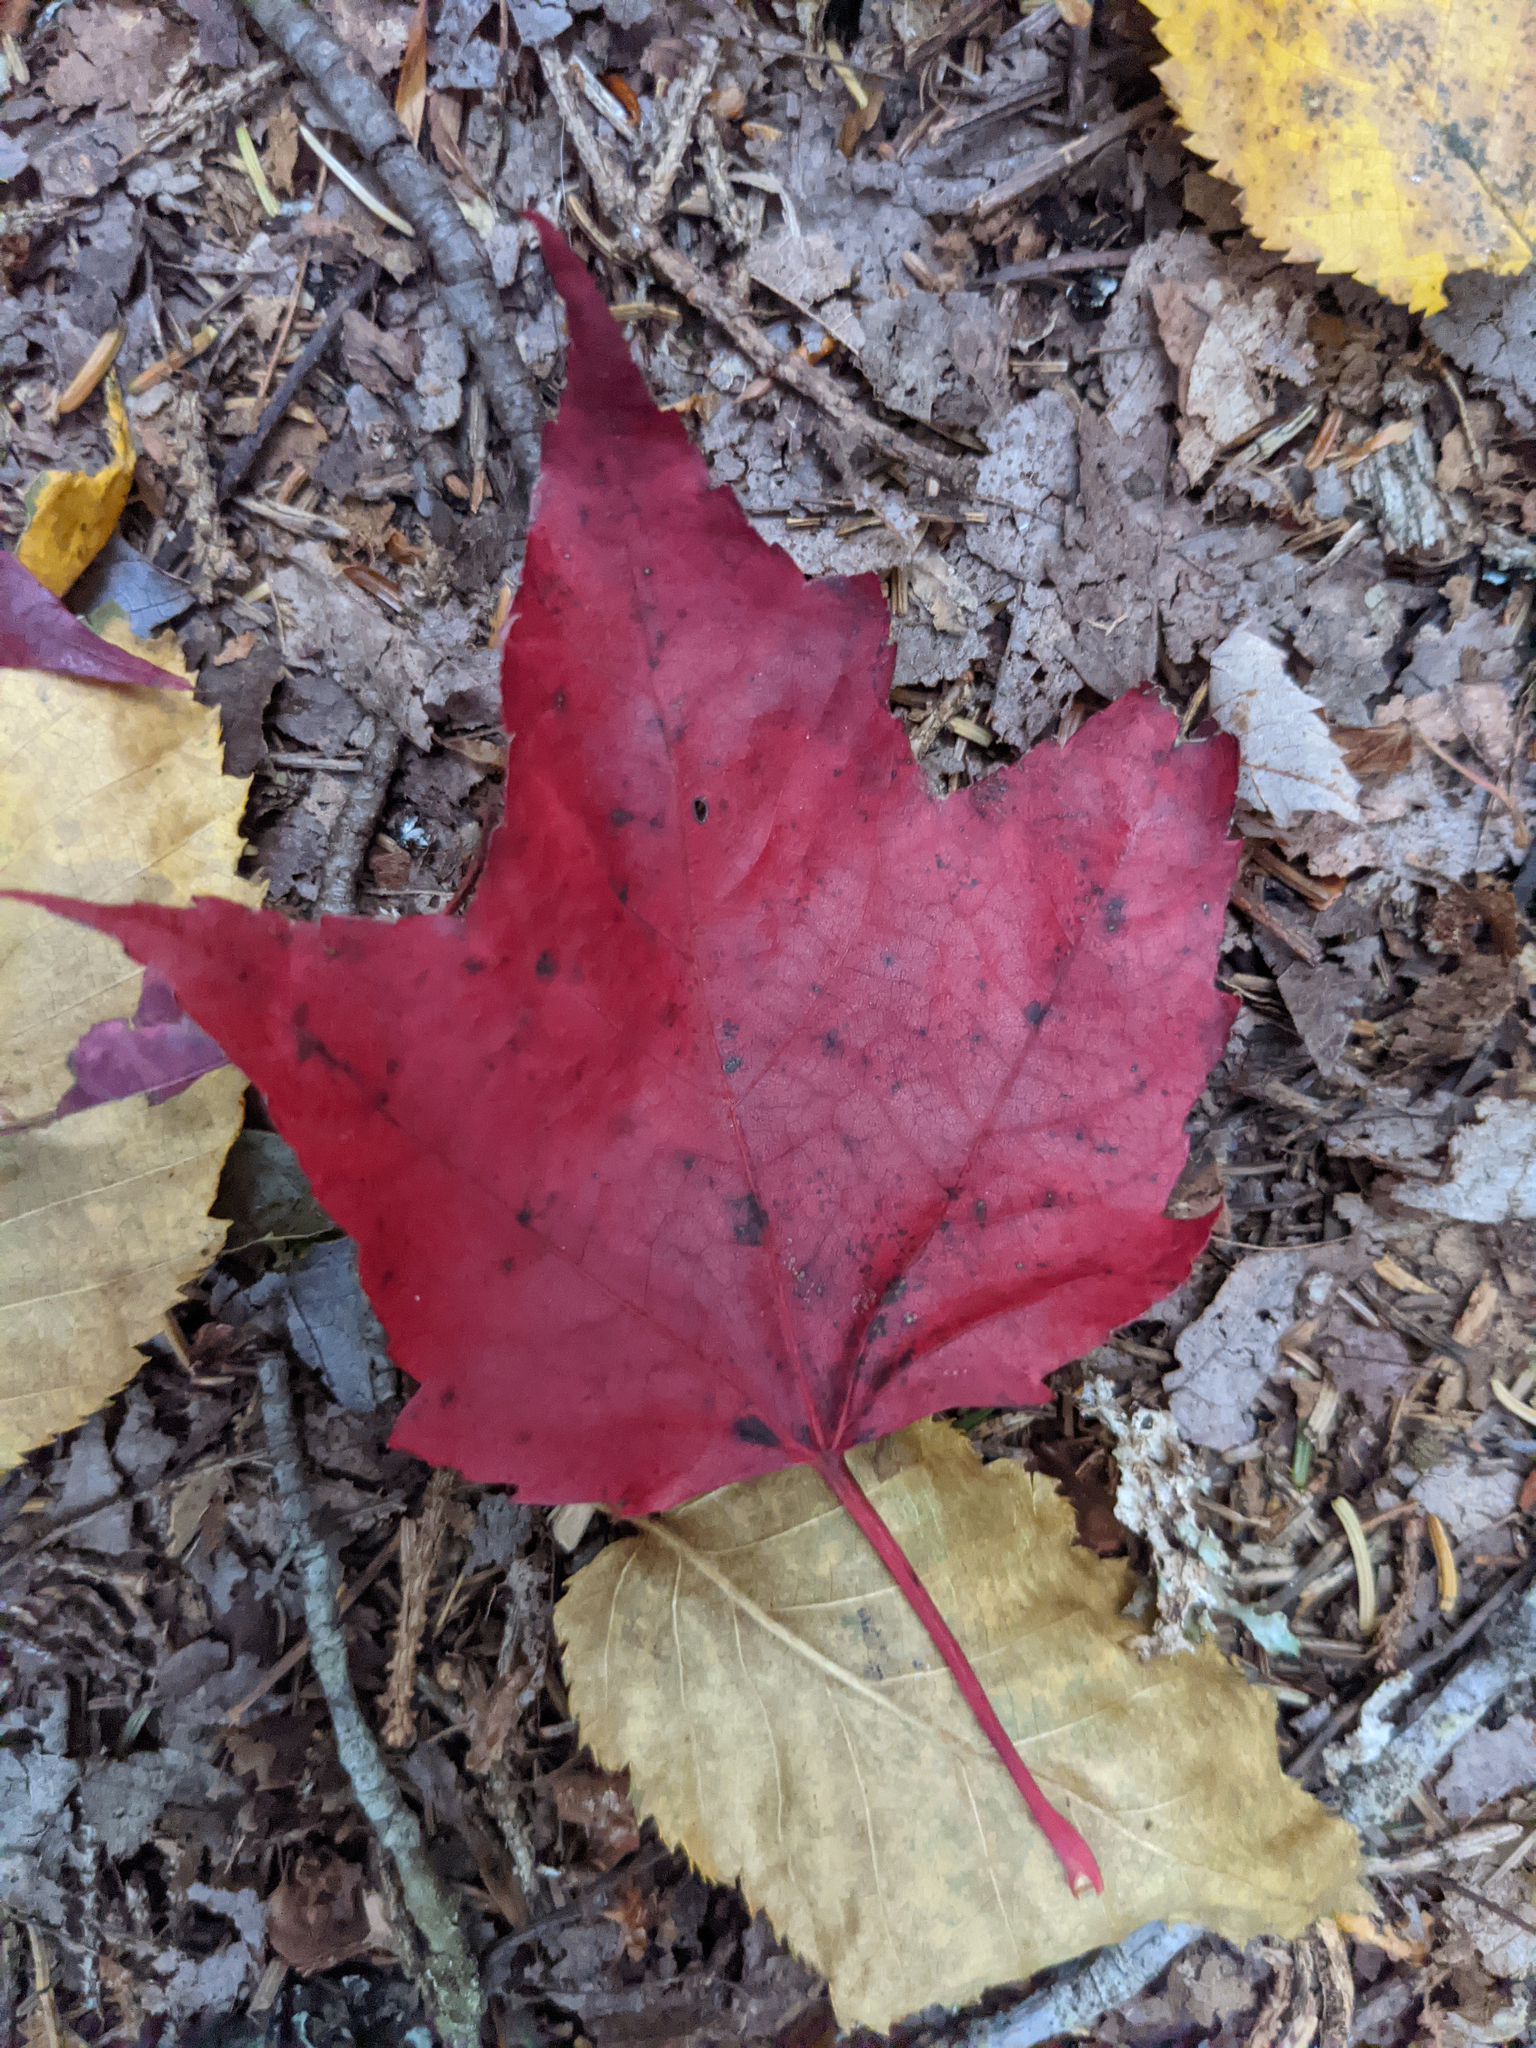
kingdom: Plantae
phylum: Tracheophyta
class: Magnoliopsida
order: Sapindales
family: Sapindaceae
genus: Acer
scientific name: Acer rubrum
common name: Red maple
